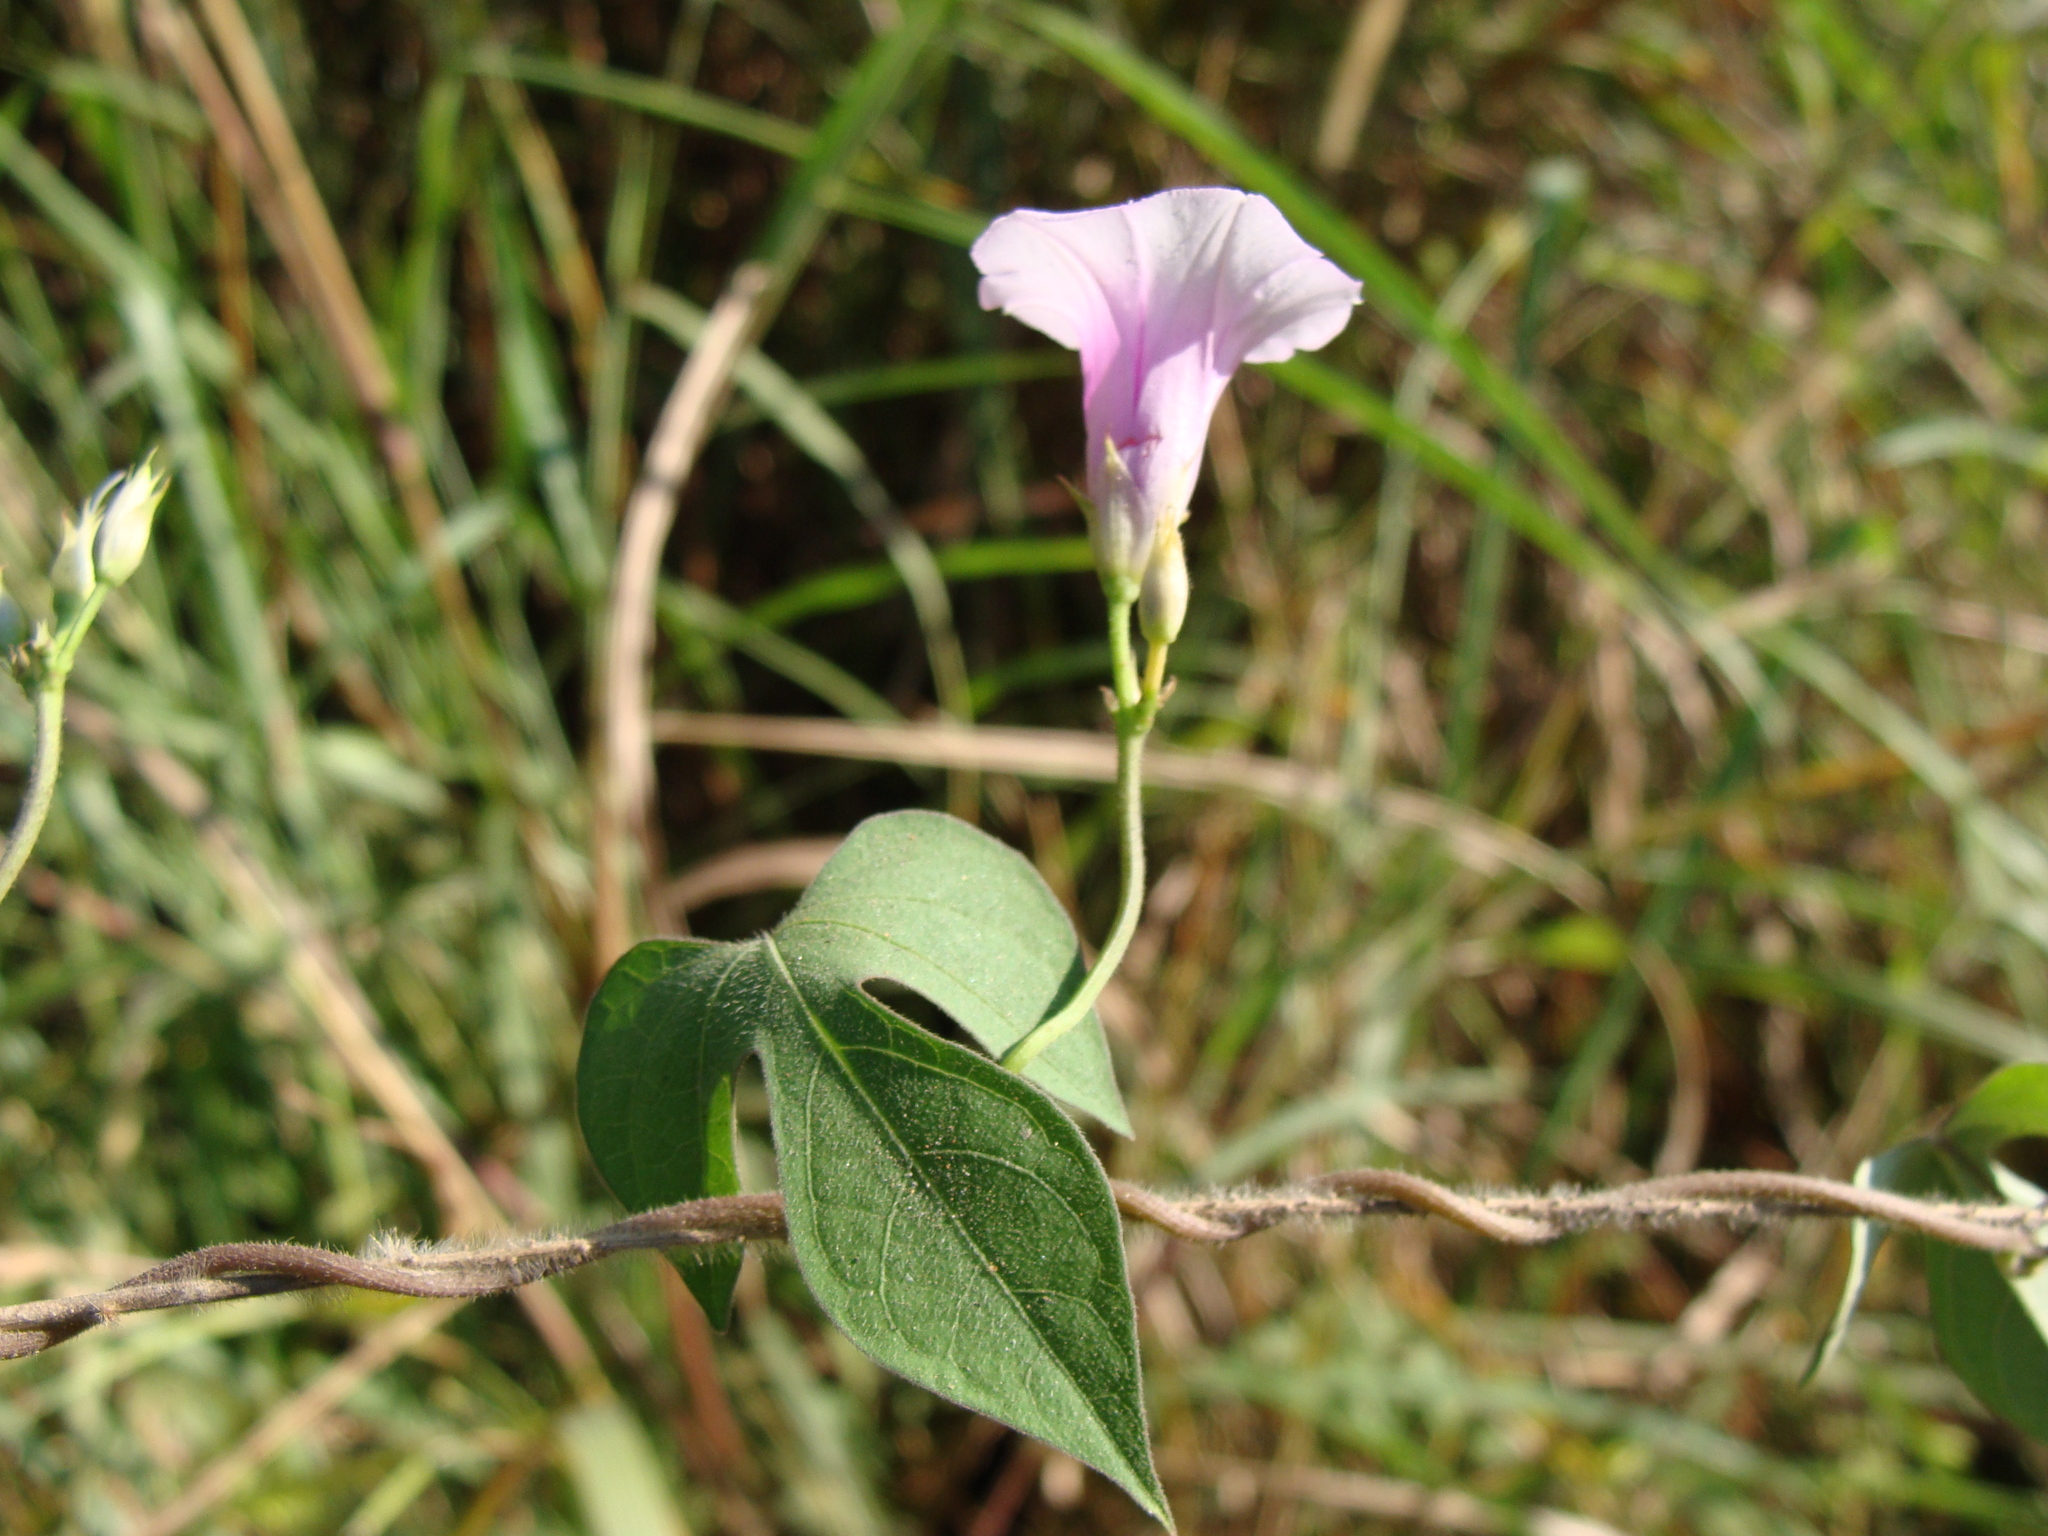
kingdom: Plantae
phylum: Tracheophyta
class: Magnoliopsida
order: Solanales
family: Convolvulaceae
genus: Ipomoea
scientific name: Ipomoea trifida
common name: Cotton morningglory
